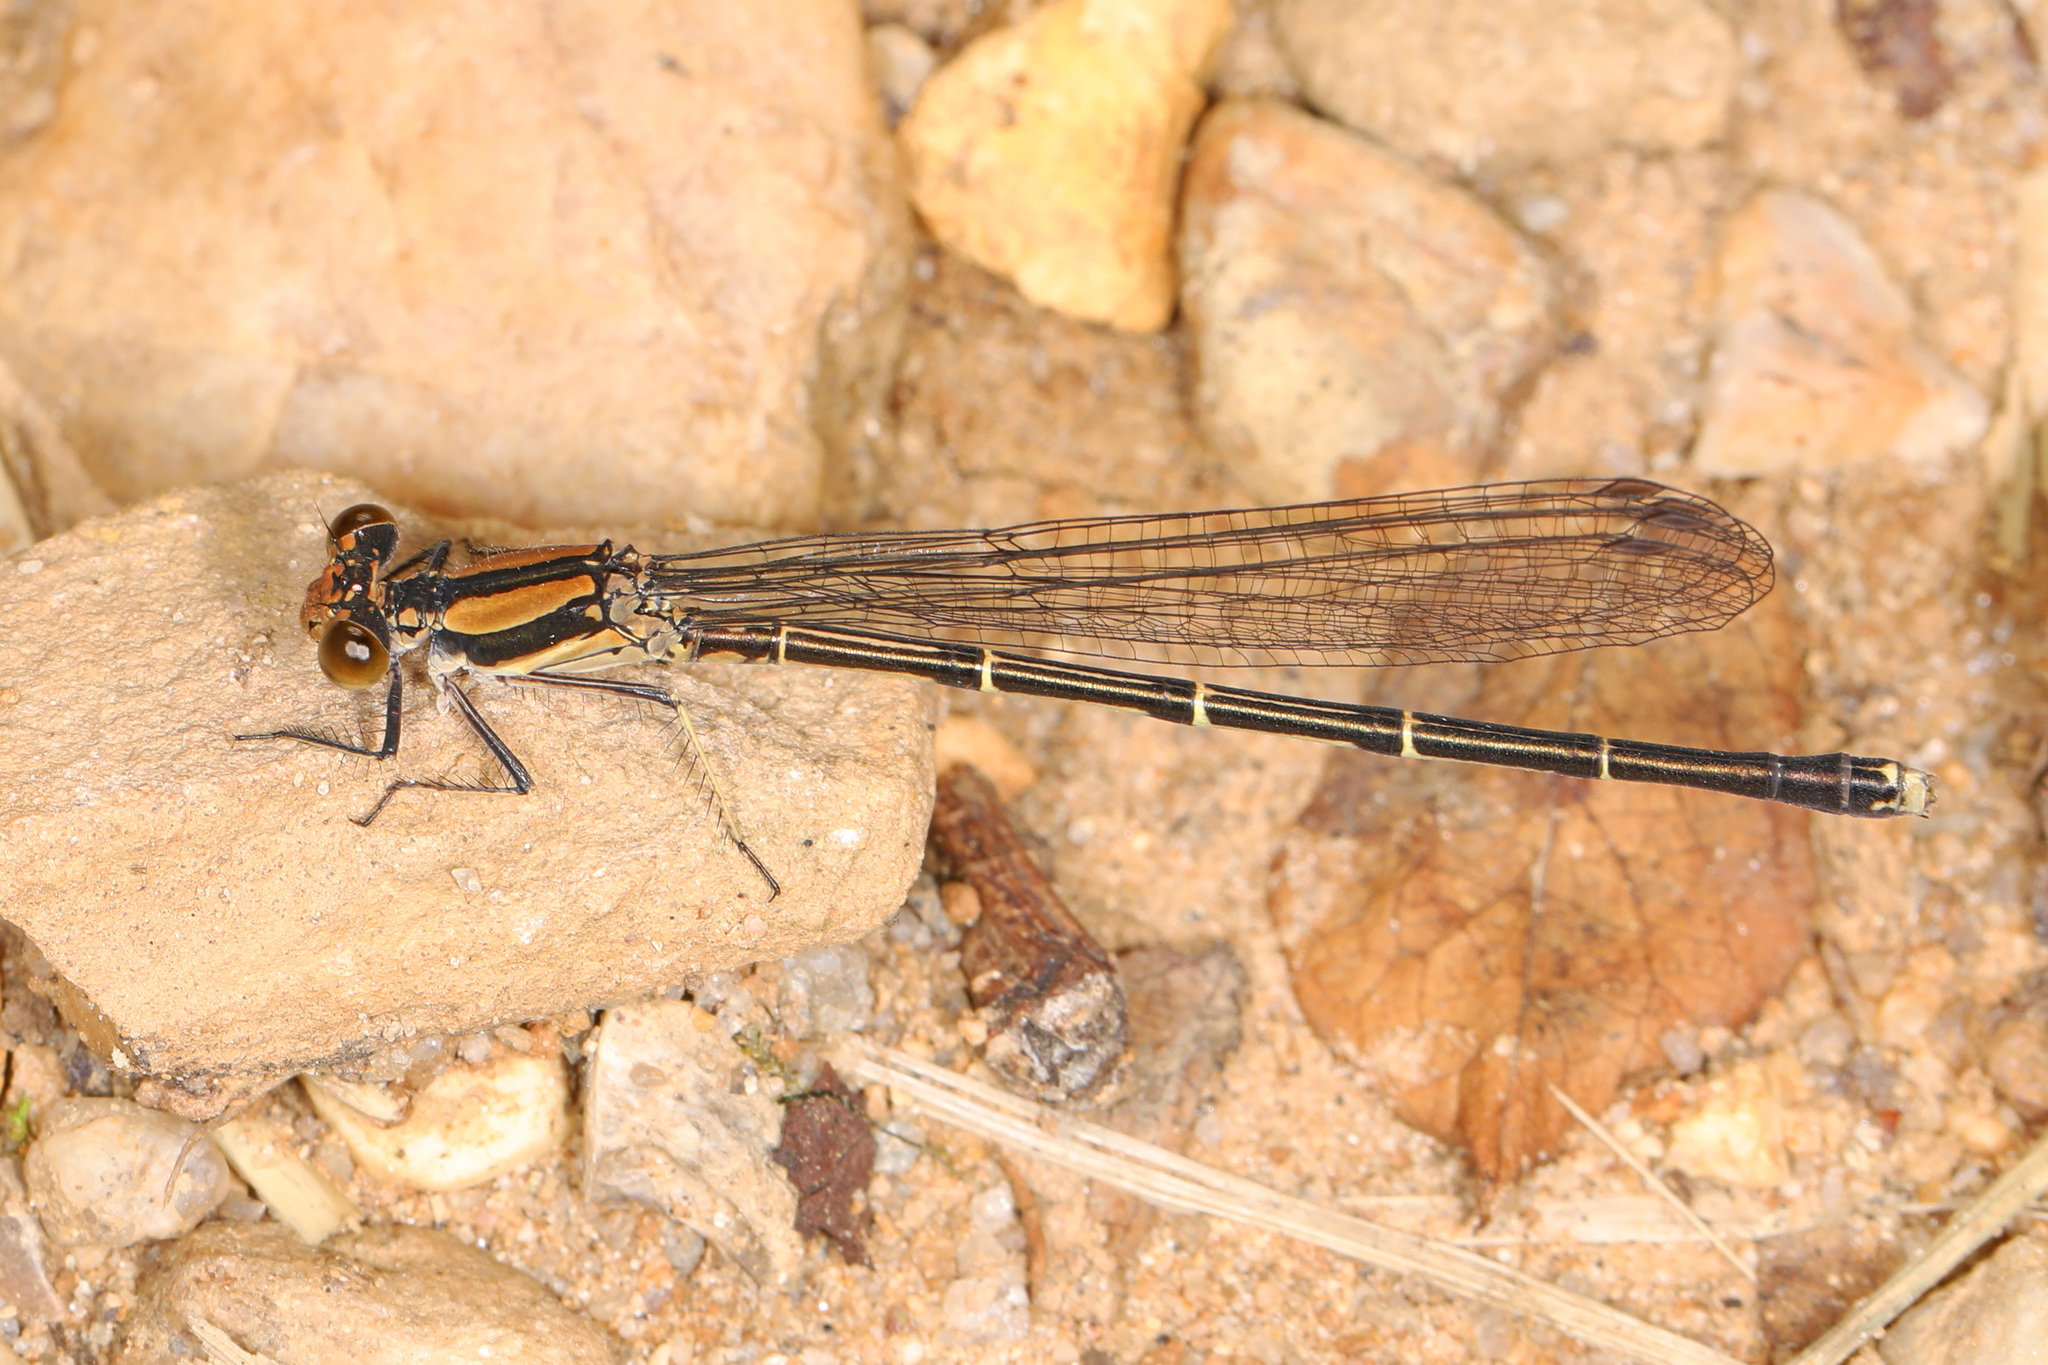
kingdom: Animalia
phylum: Arthropoda
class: Insecta
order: Odonata
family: Coenagrionidae
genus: Argia
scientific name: Argia tibialis
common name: Blue-tipped dancer
